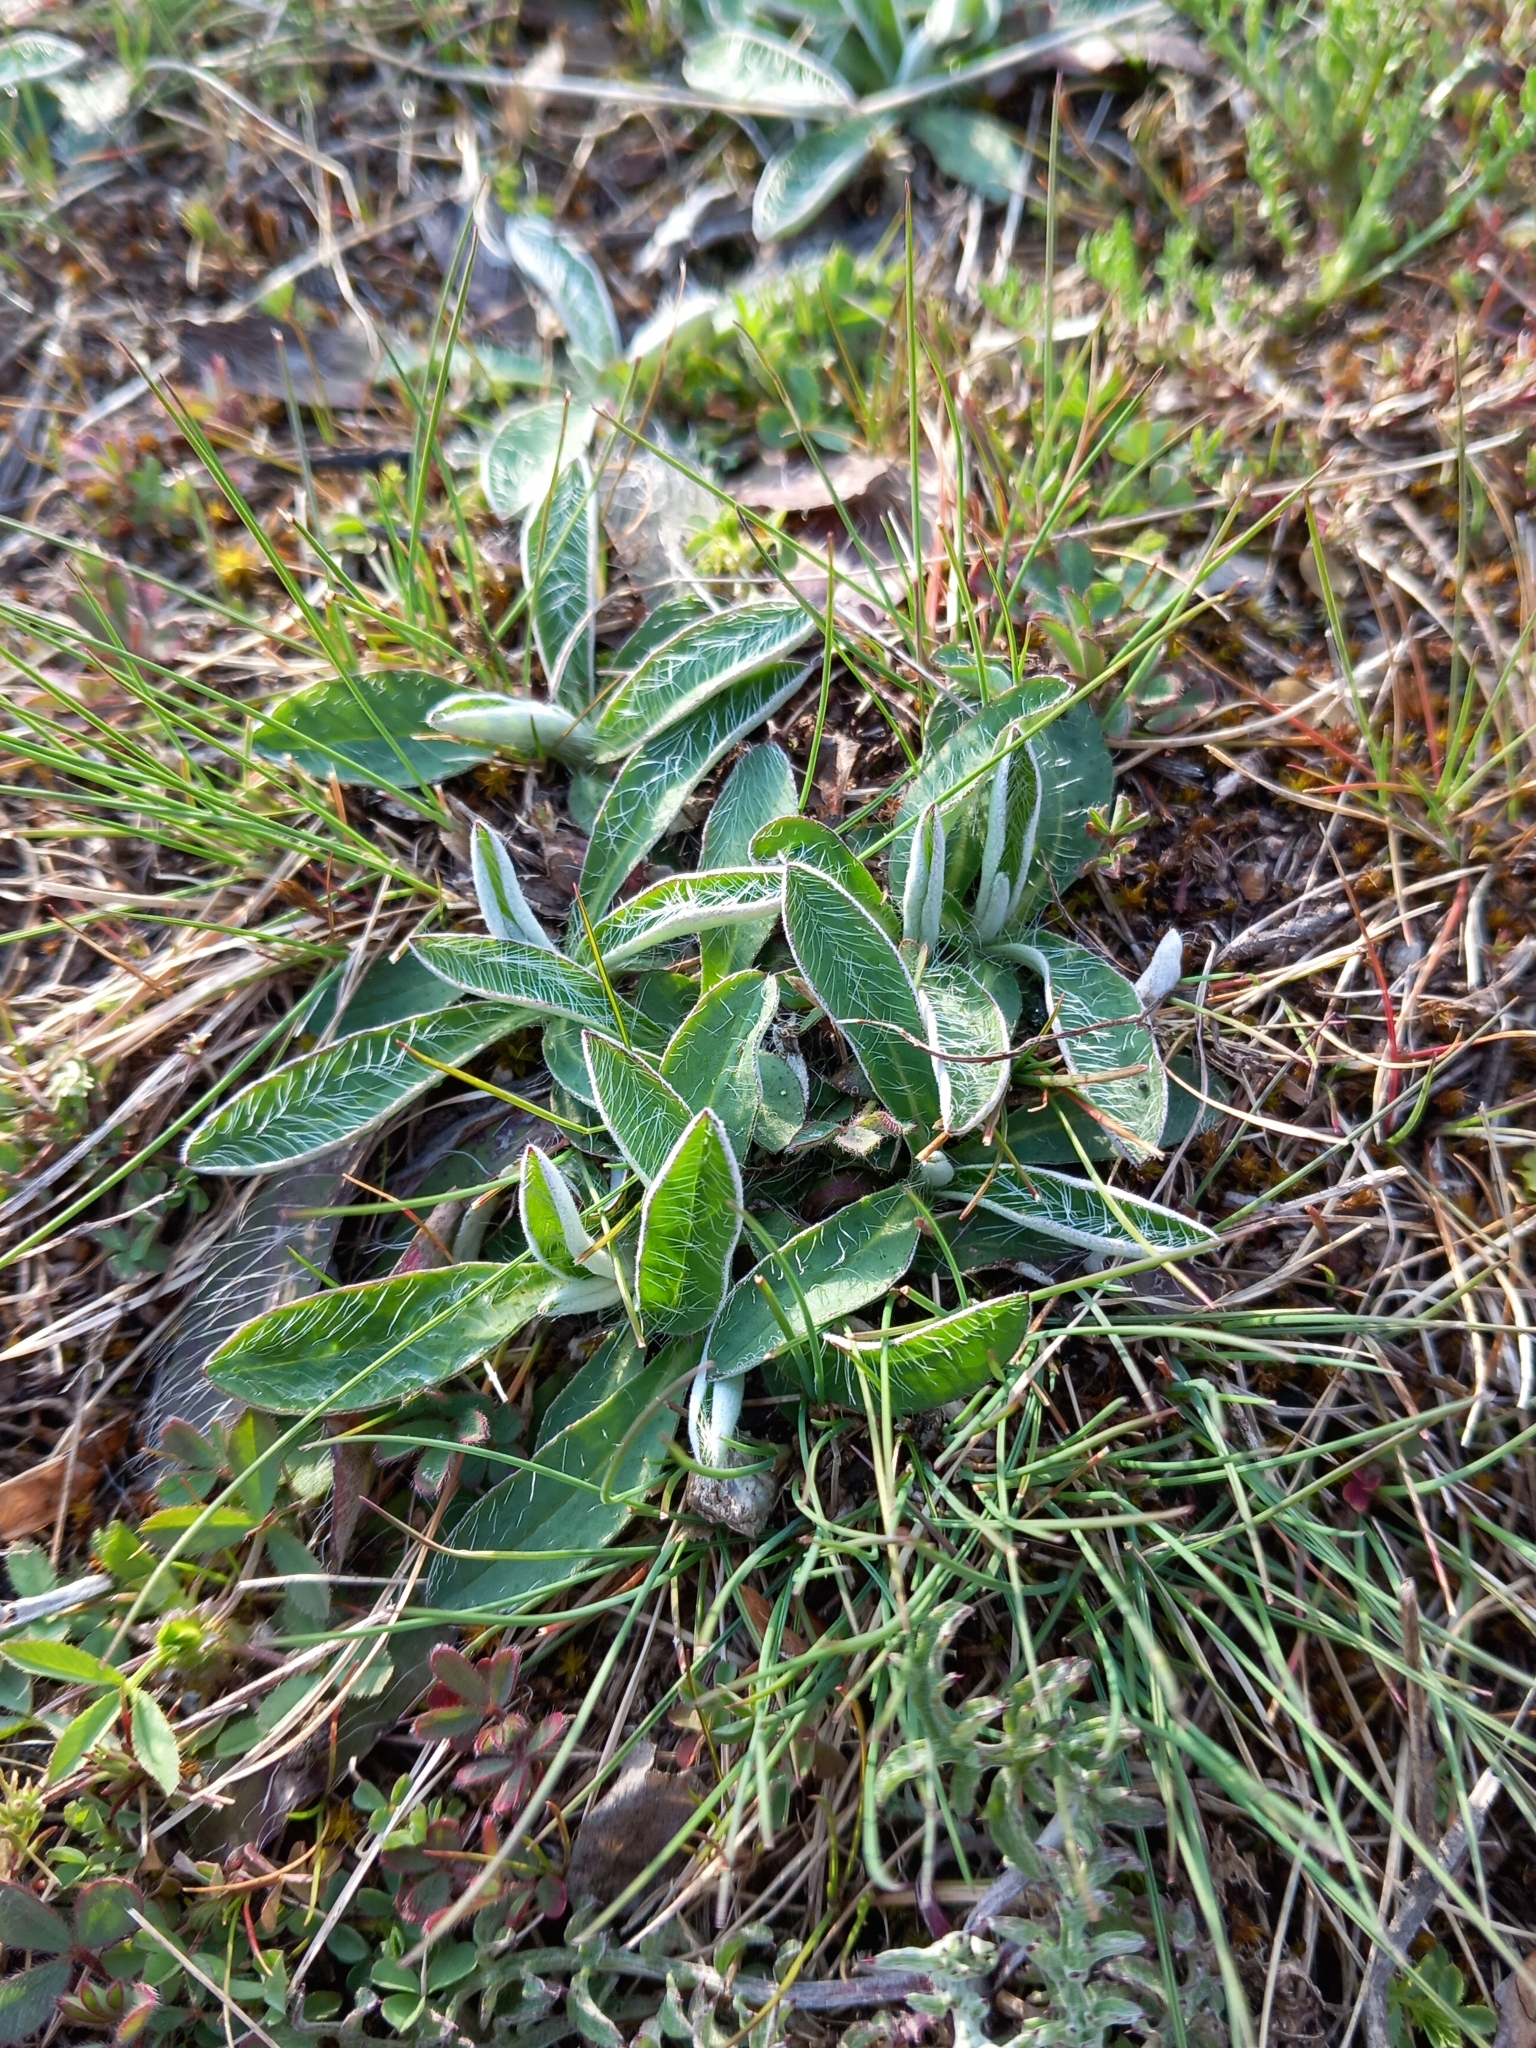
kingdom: Plantae
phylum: Tracheophyta
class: Magnoliopsida
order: Asterales
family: Asteraceae
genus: Pilosella
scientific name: Pilosella officinarum
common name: Mouse-ear hawkweed
